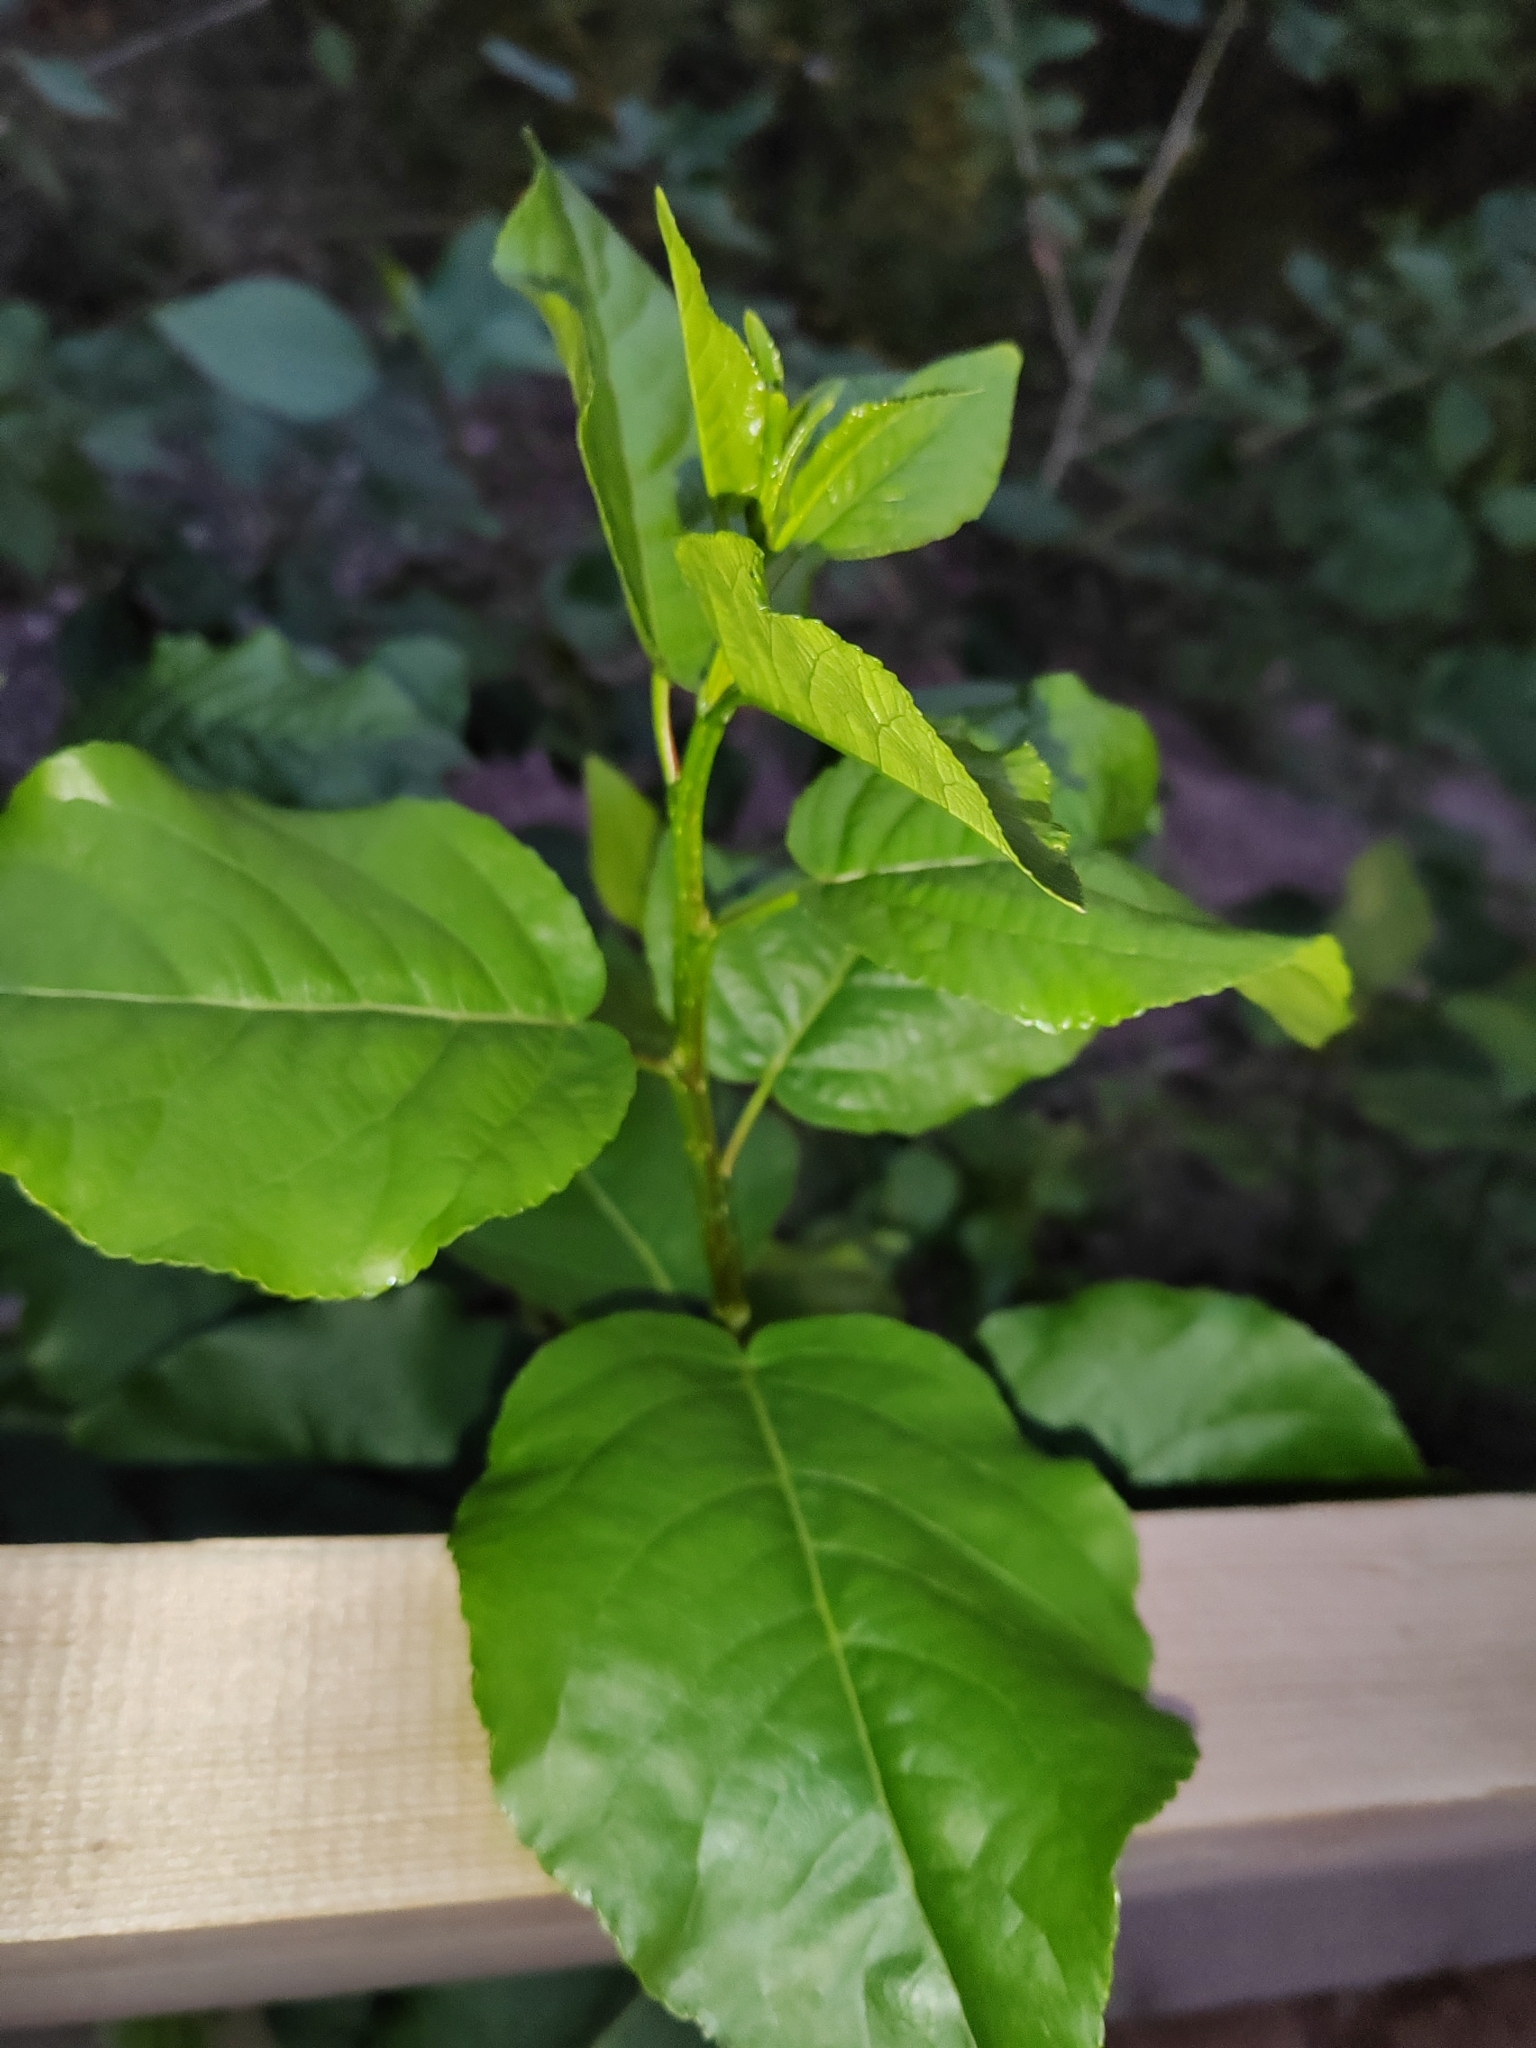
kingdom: Plantae
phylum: Tracheophyta
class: Magnoliopsida
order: Malpighiales
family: Salicaceae
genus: Populus
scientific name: Populus sibirica
